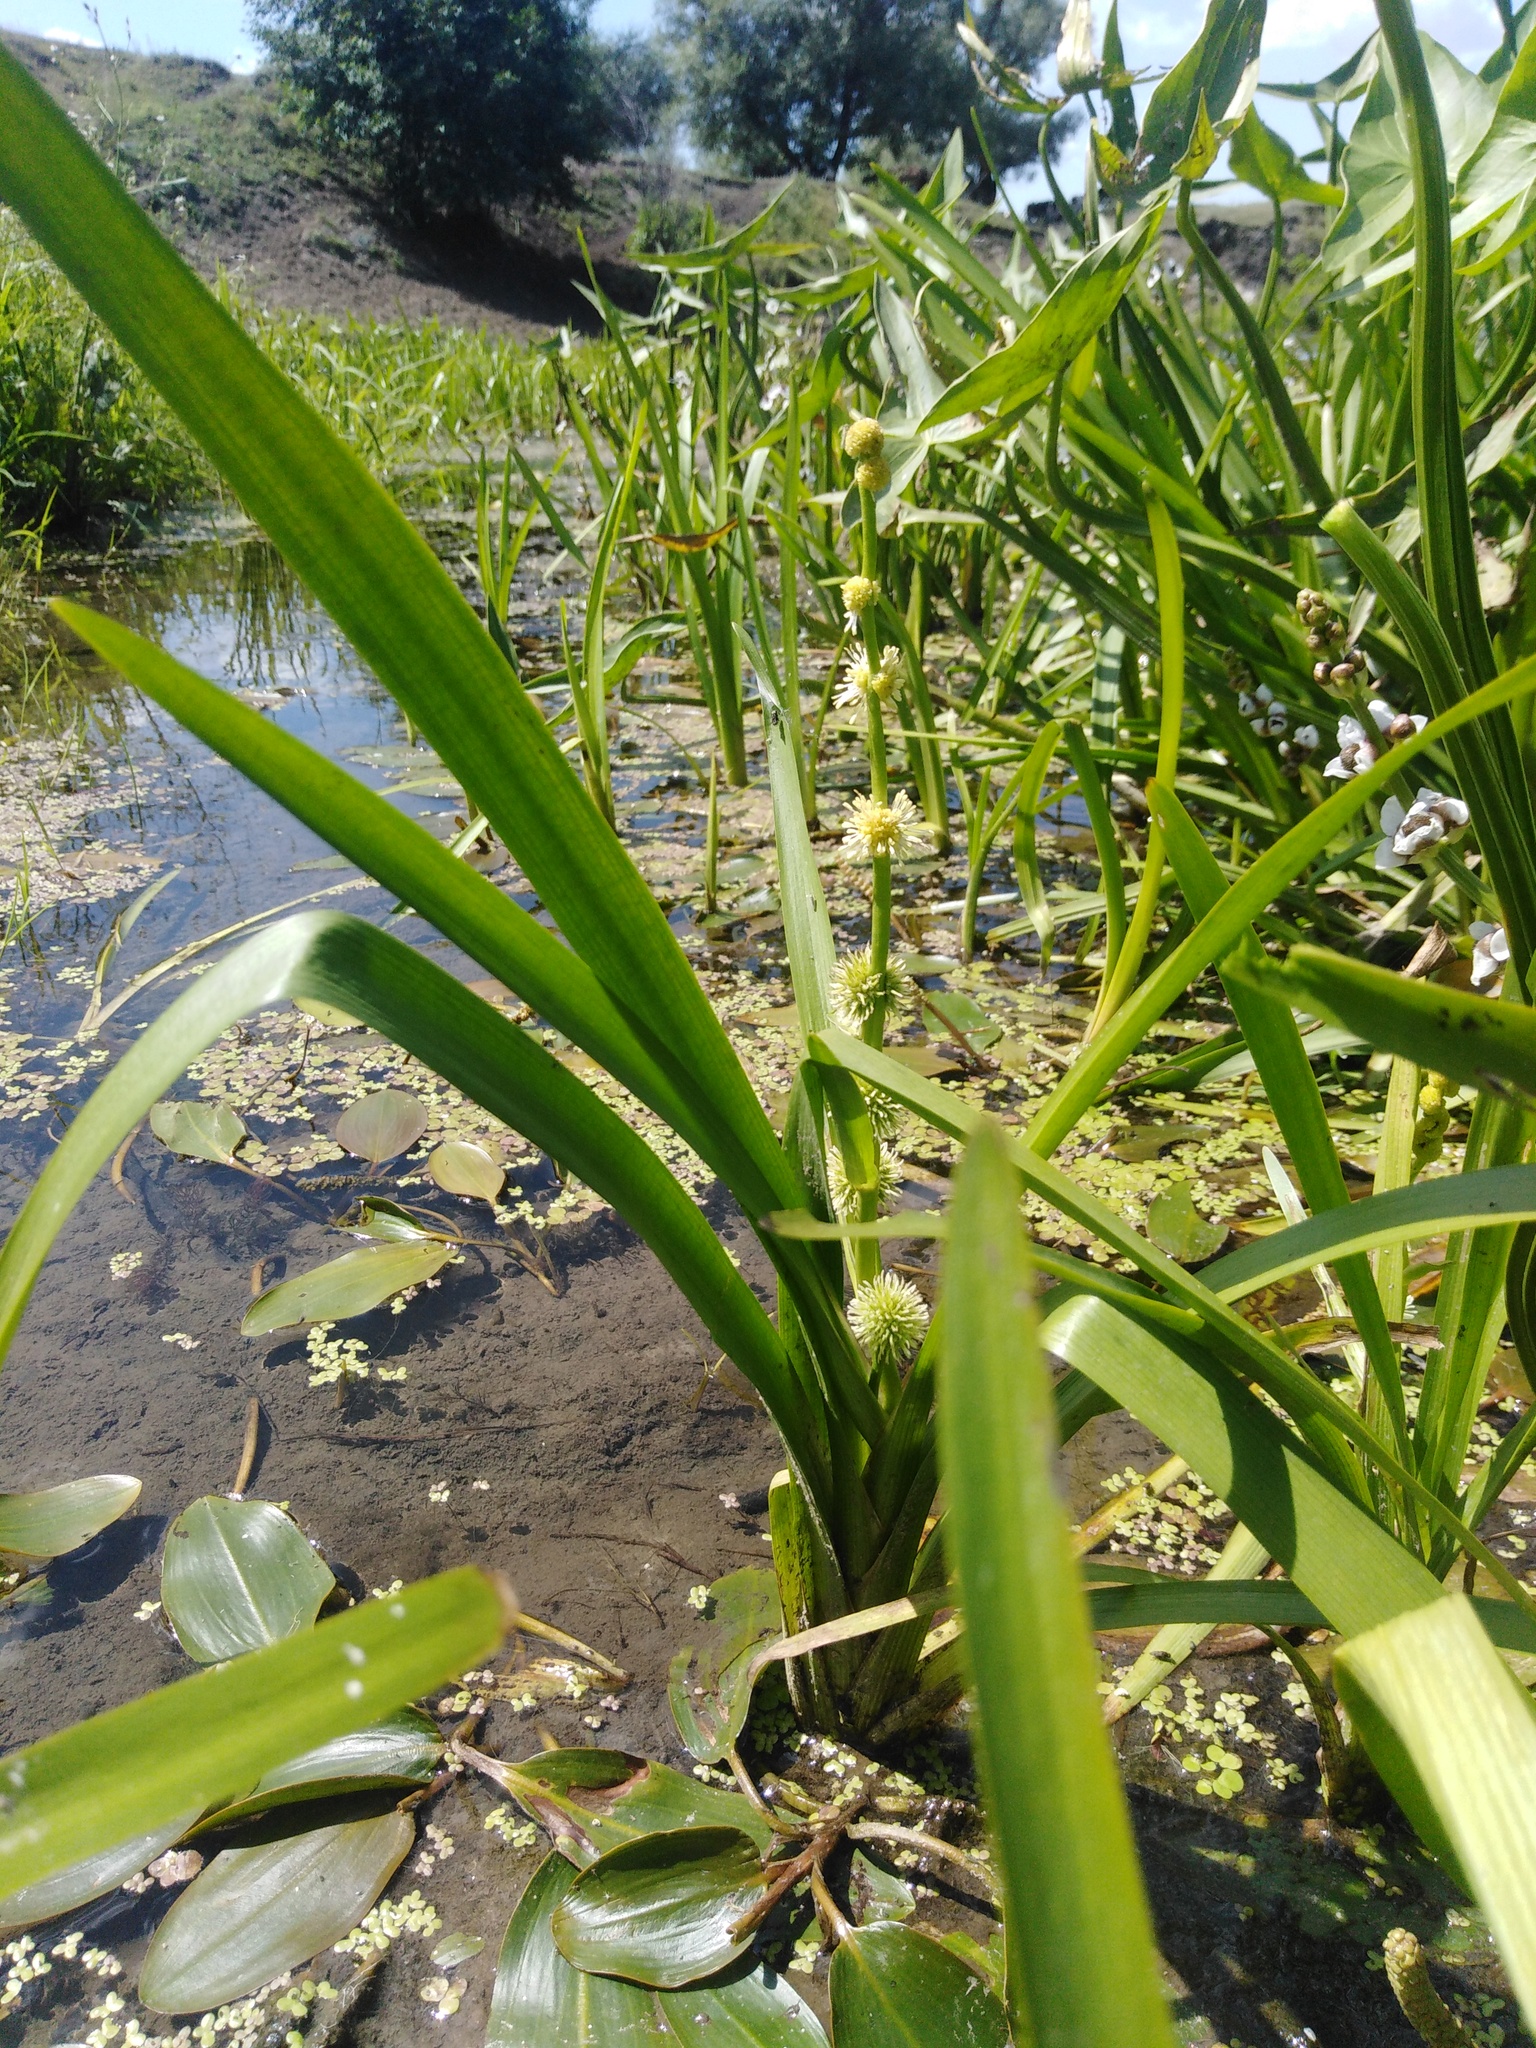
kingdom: Plantae
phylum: Tracheophyta
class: Liliopsida
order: Poales
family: Typhaceae
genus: Sparganium
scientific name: Sparganium emersum
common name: Unbranched bur-reed
